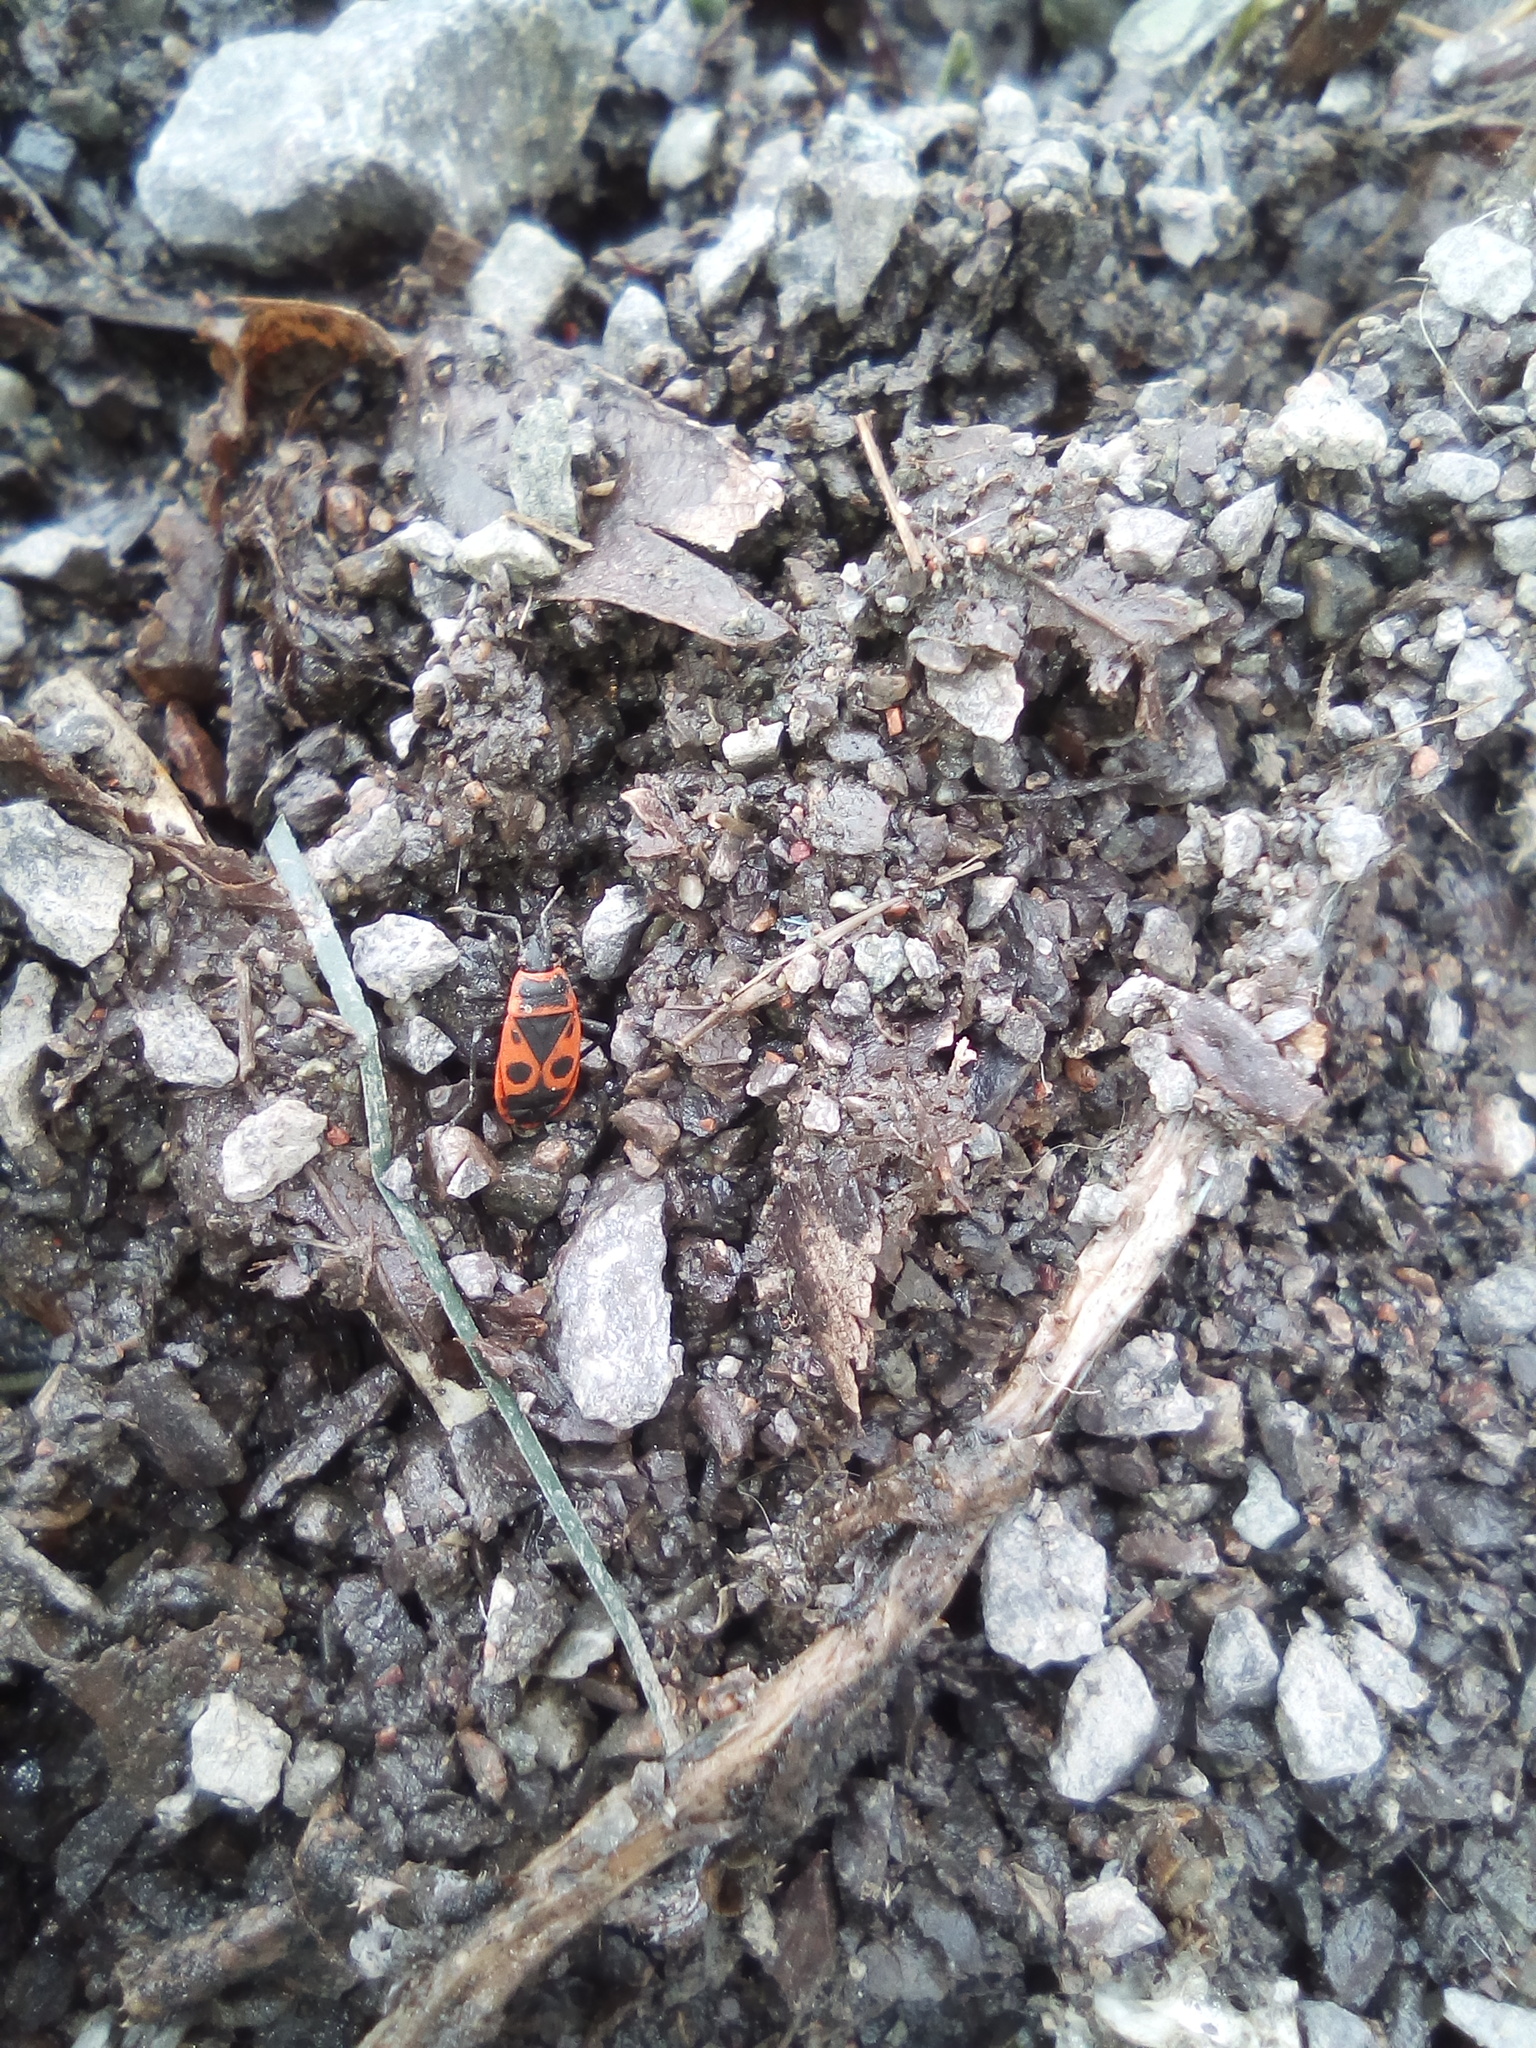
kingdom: Animalia
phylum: Arthropoda
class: Insecta
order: Hemiptera
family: Pyrrhocoridae
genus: Pyrrhocoris
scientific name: Pyrrhocoris apterus
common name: Firebug
